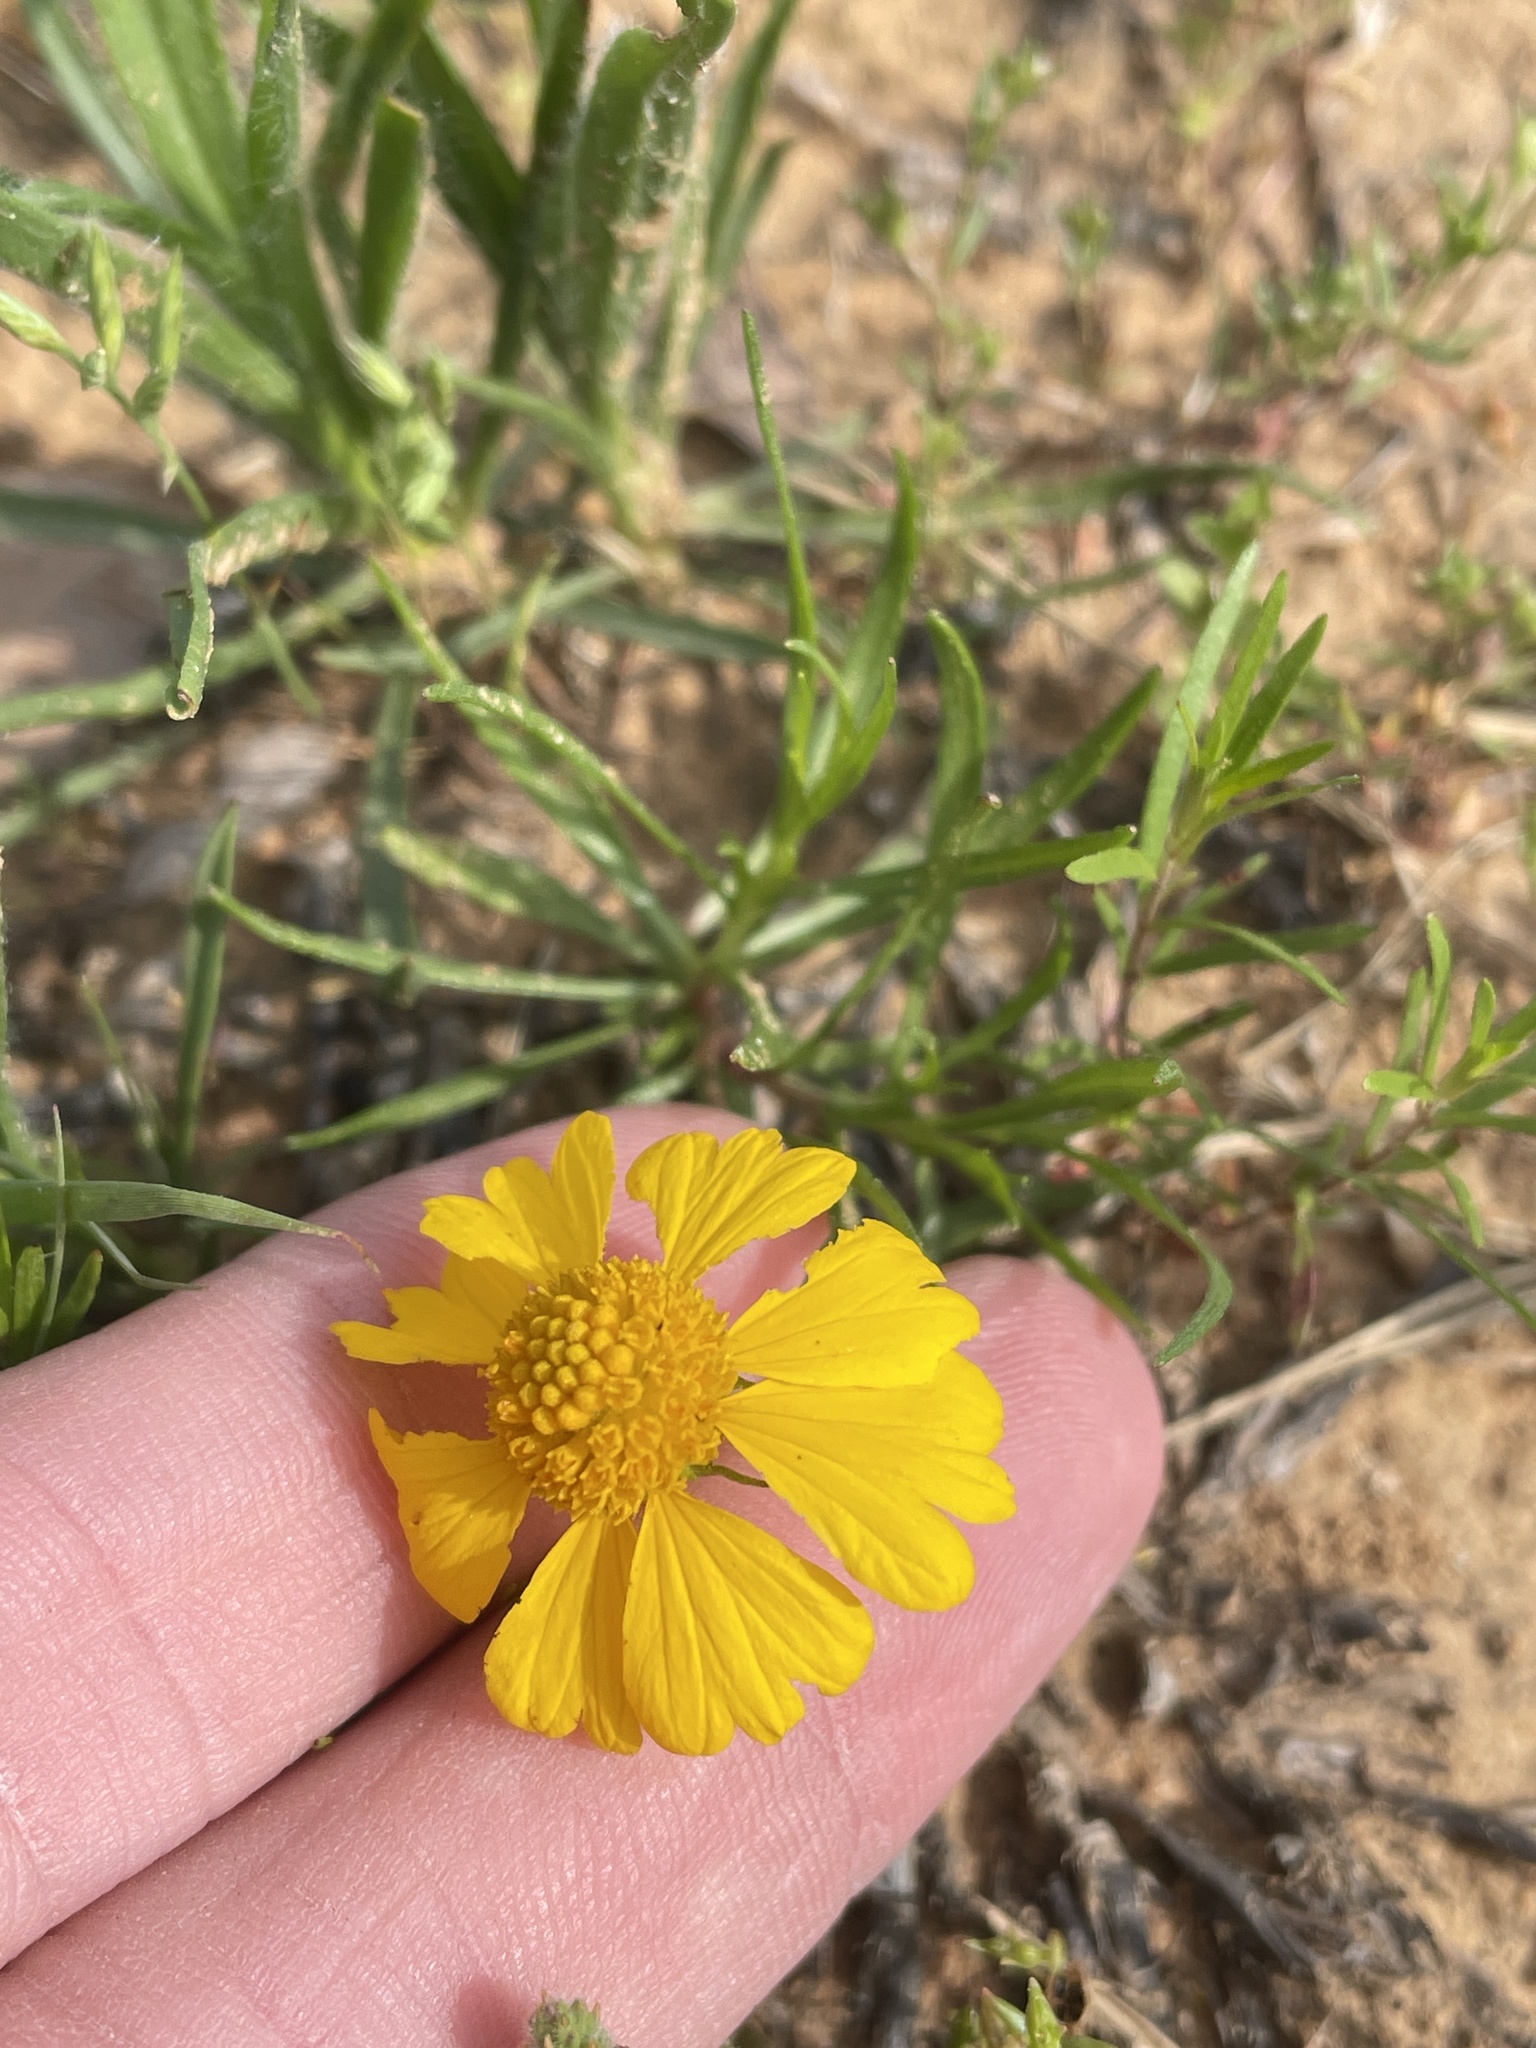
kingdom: Plantae
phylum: Tracheophyta
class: Magnoliopsida
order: Asterales
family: Asteraceae
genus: Helenium
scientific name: Helenium amarum
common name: Bitter sneezeweed
